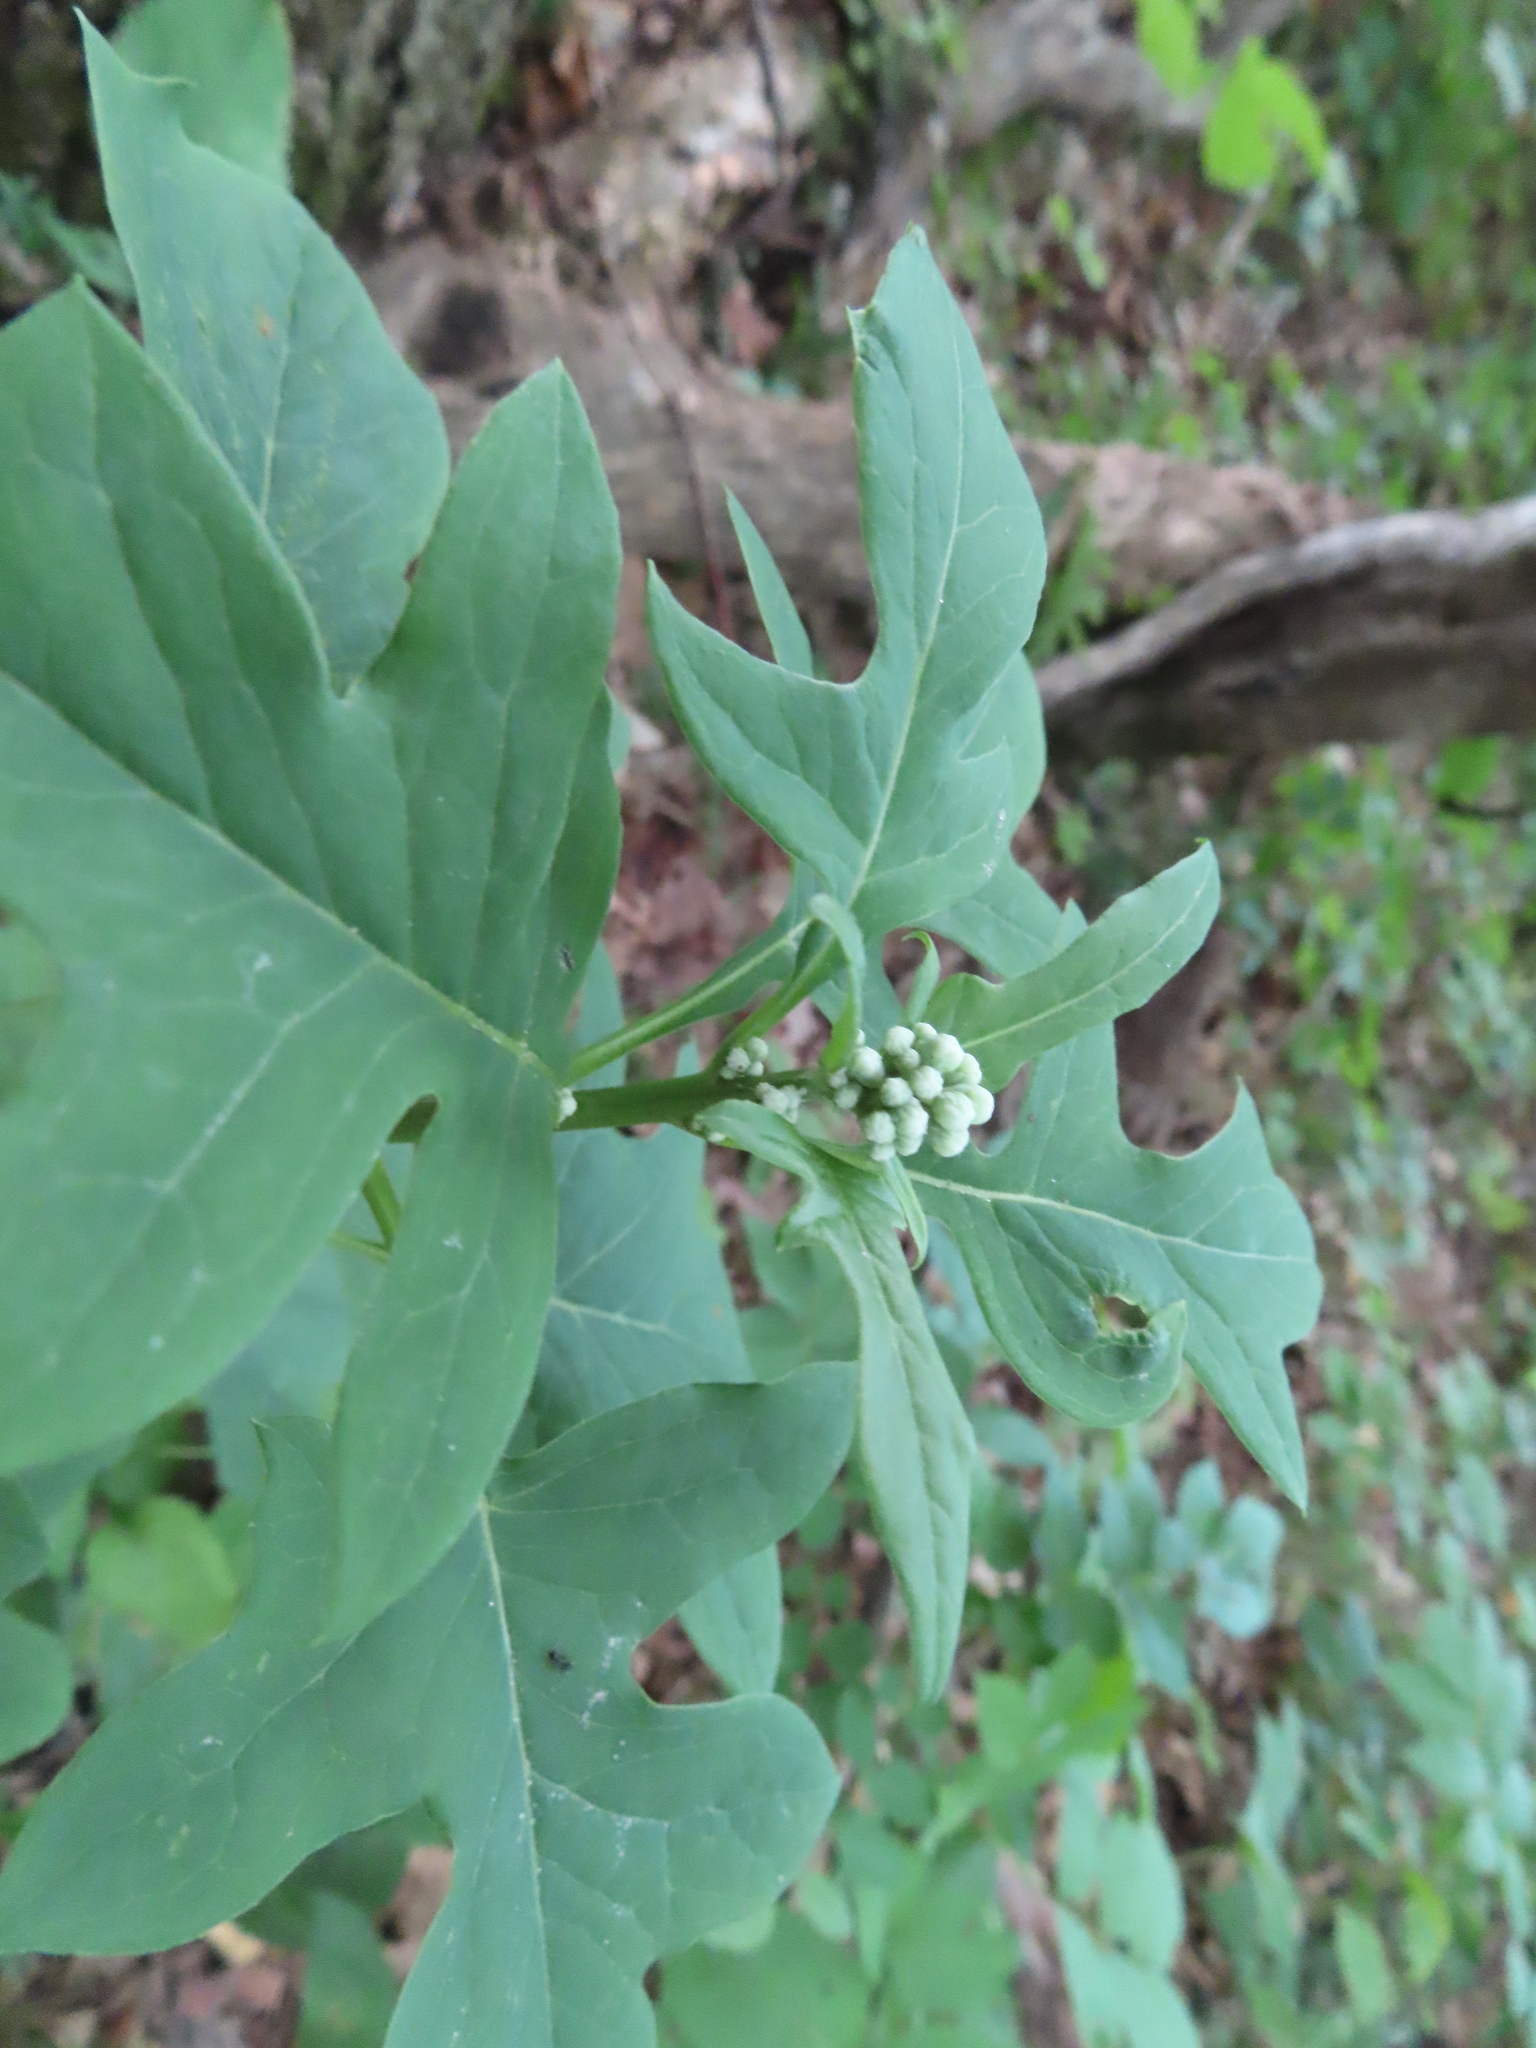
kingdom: Plantae
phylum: Tracheophyta
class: Magnoliopsida
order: Asterales
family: Asteraceae
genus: Nabalus
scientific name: Nabalus albus
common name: White rattlesnakeroot
